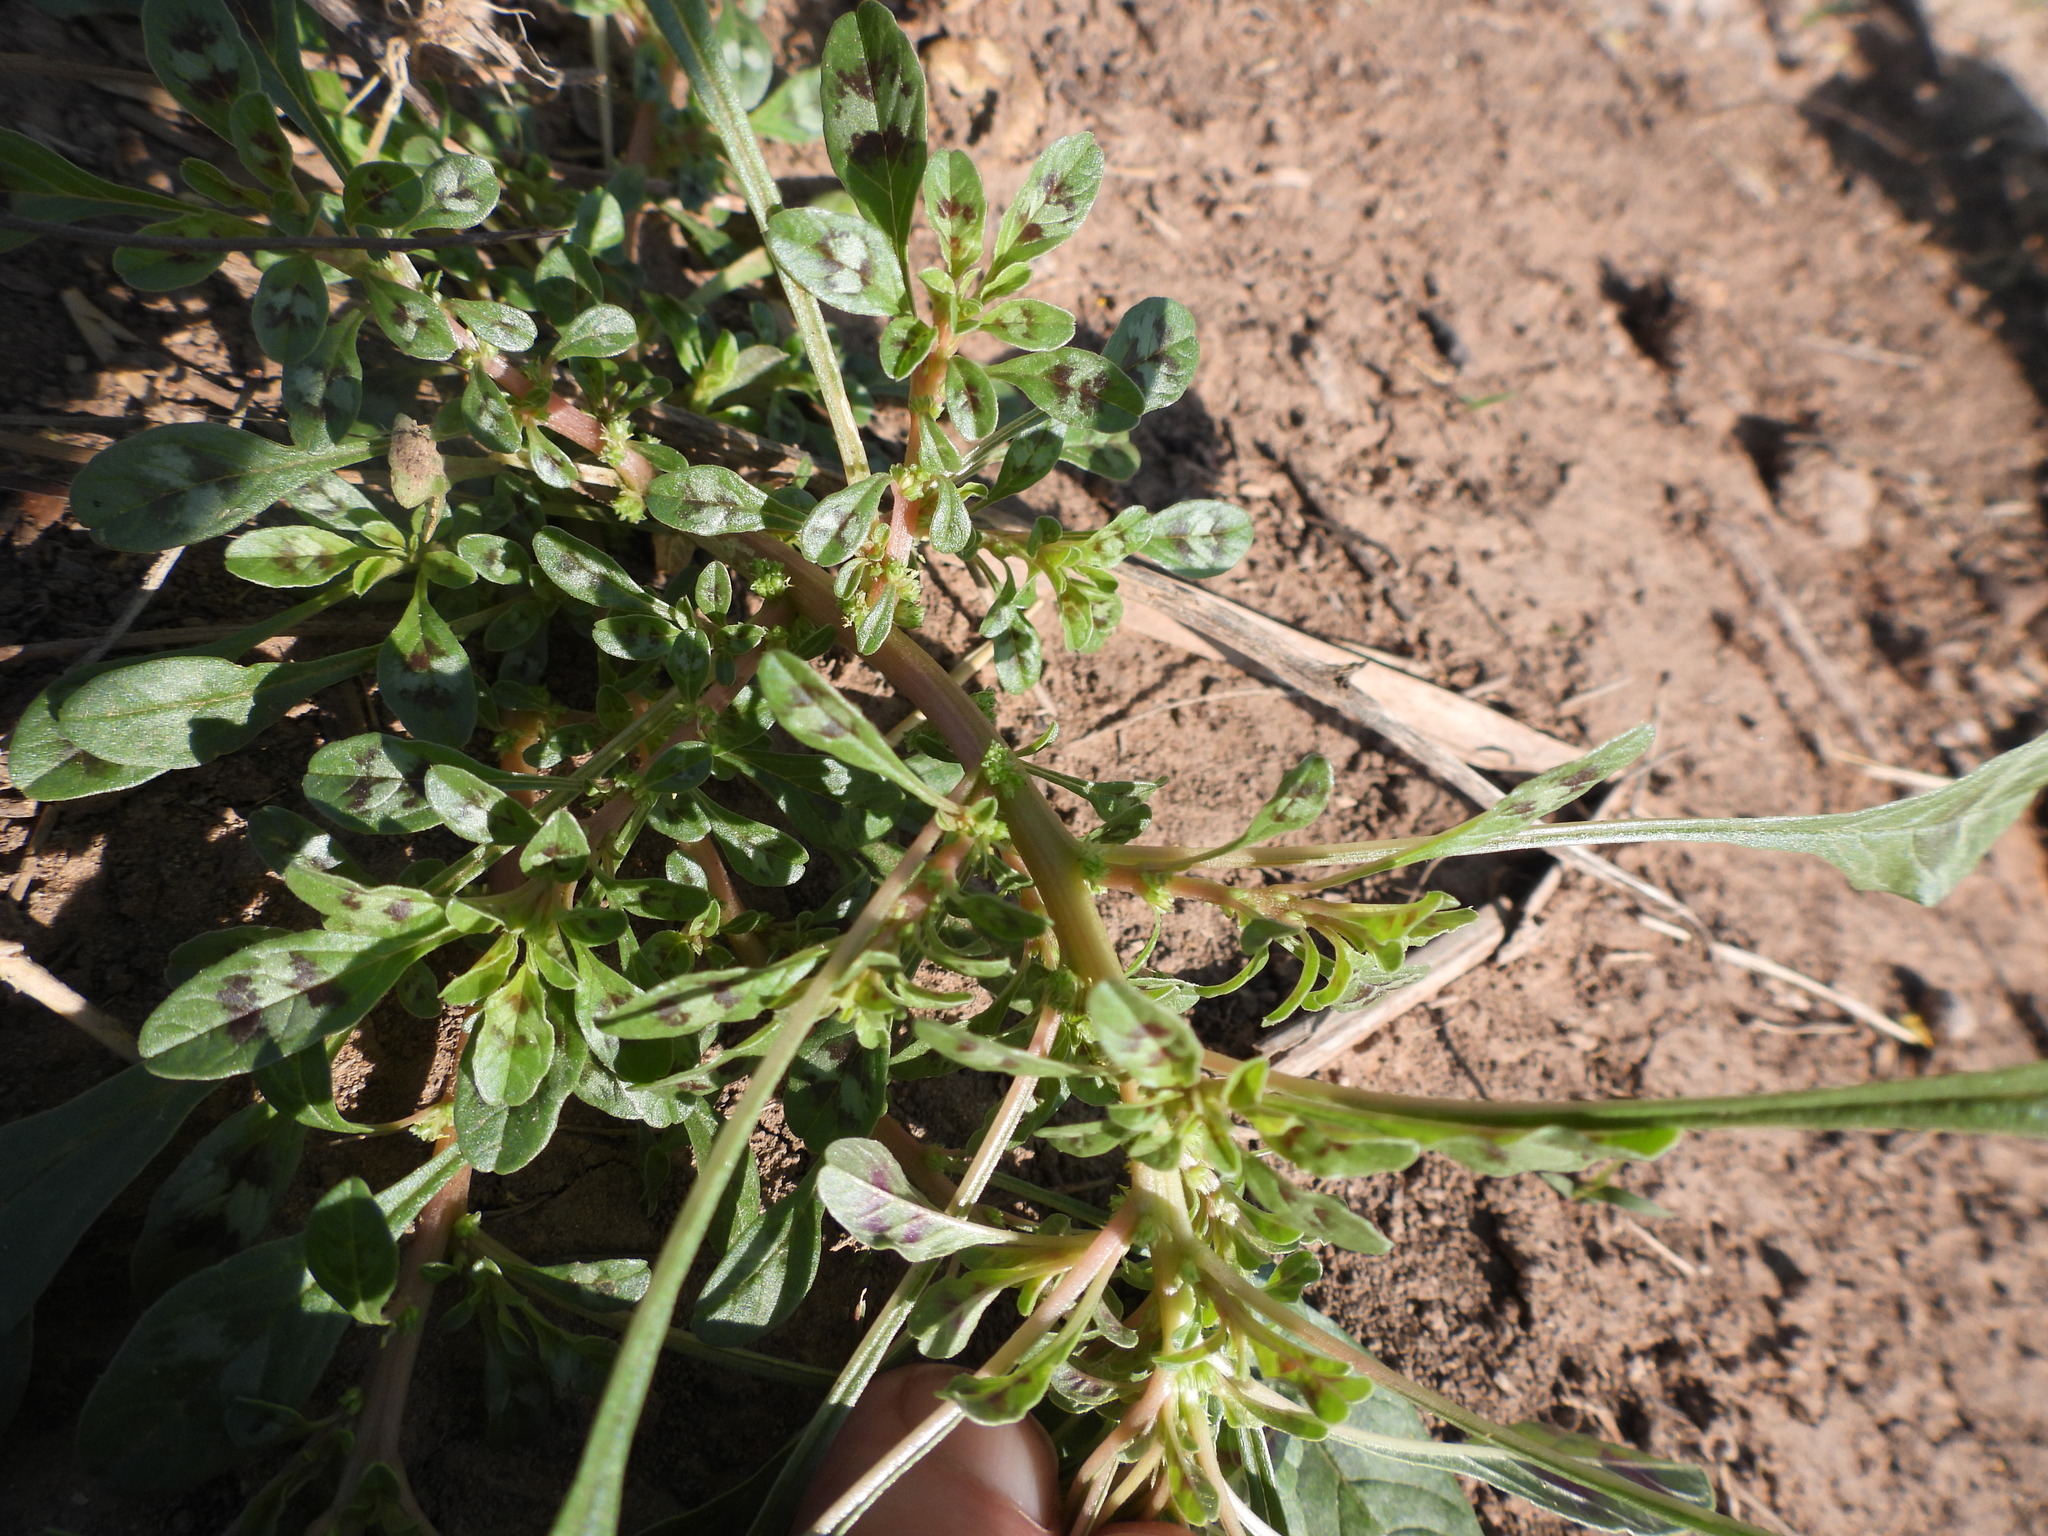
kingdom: Plantae
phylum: Tracheophyta
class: Magnoliopsida
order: Caryophyllales
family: Amaranthaceae
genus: Amaranthus
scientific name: Amaranthus crassipes
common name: Spreading amaranth
